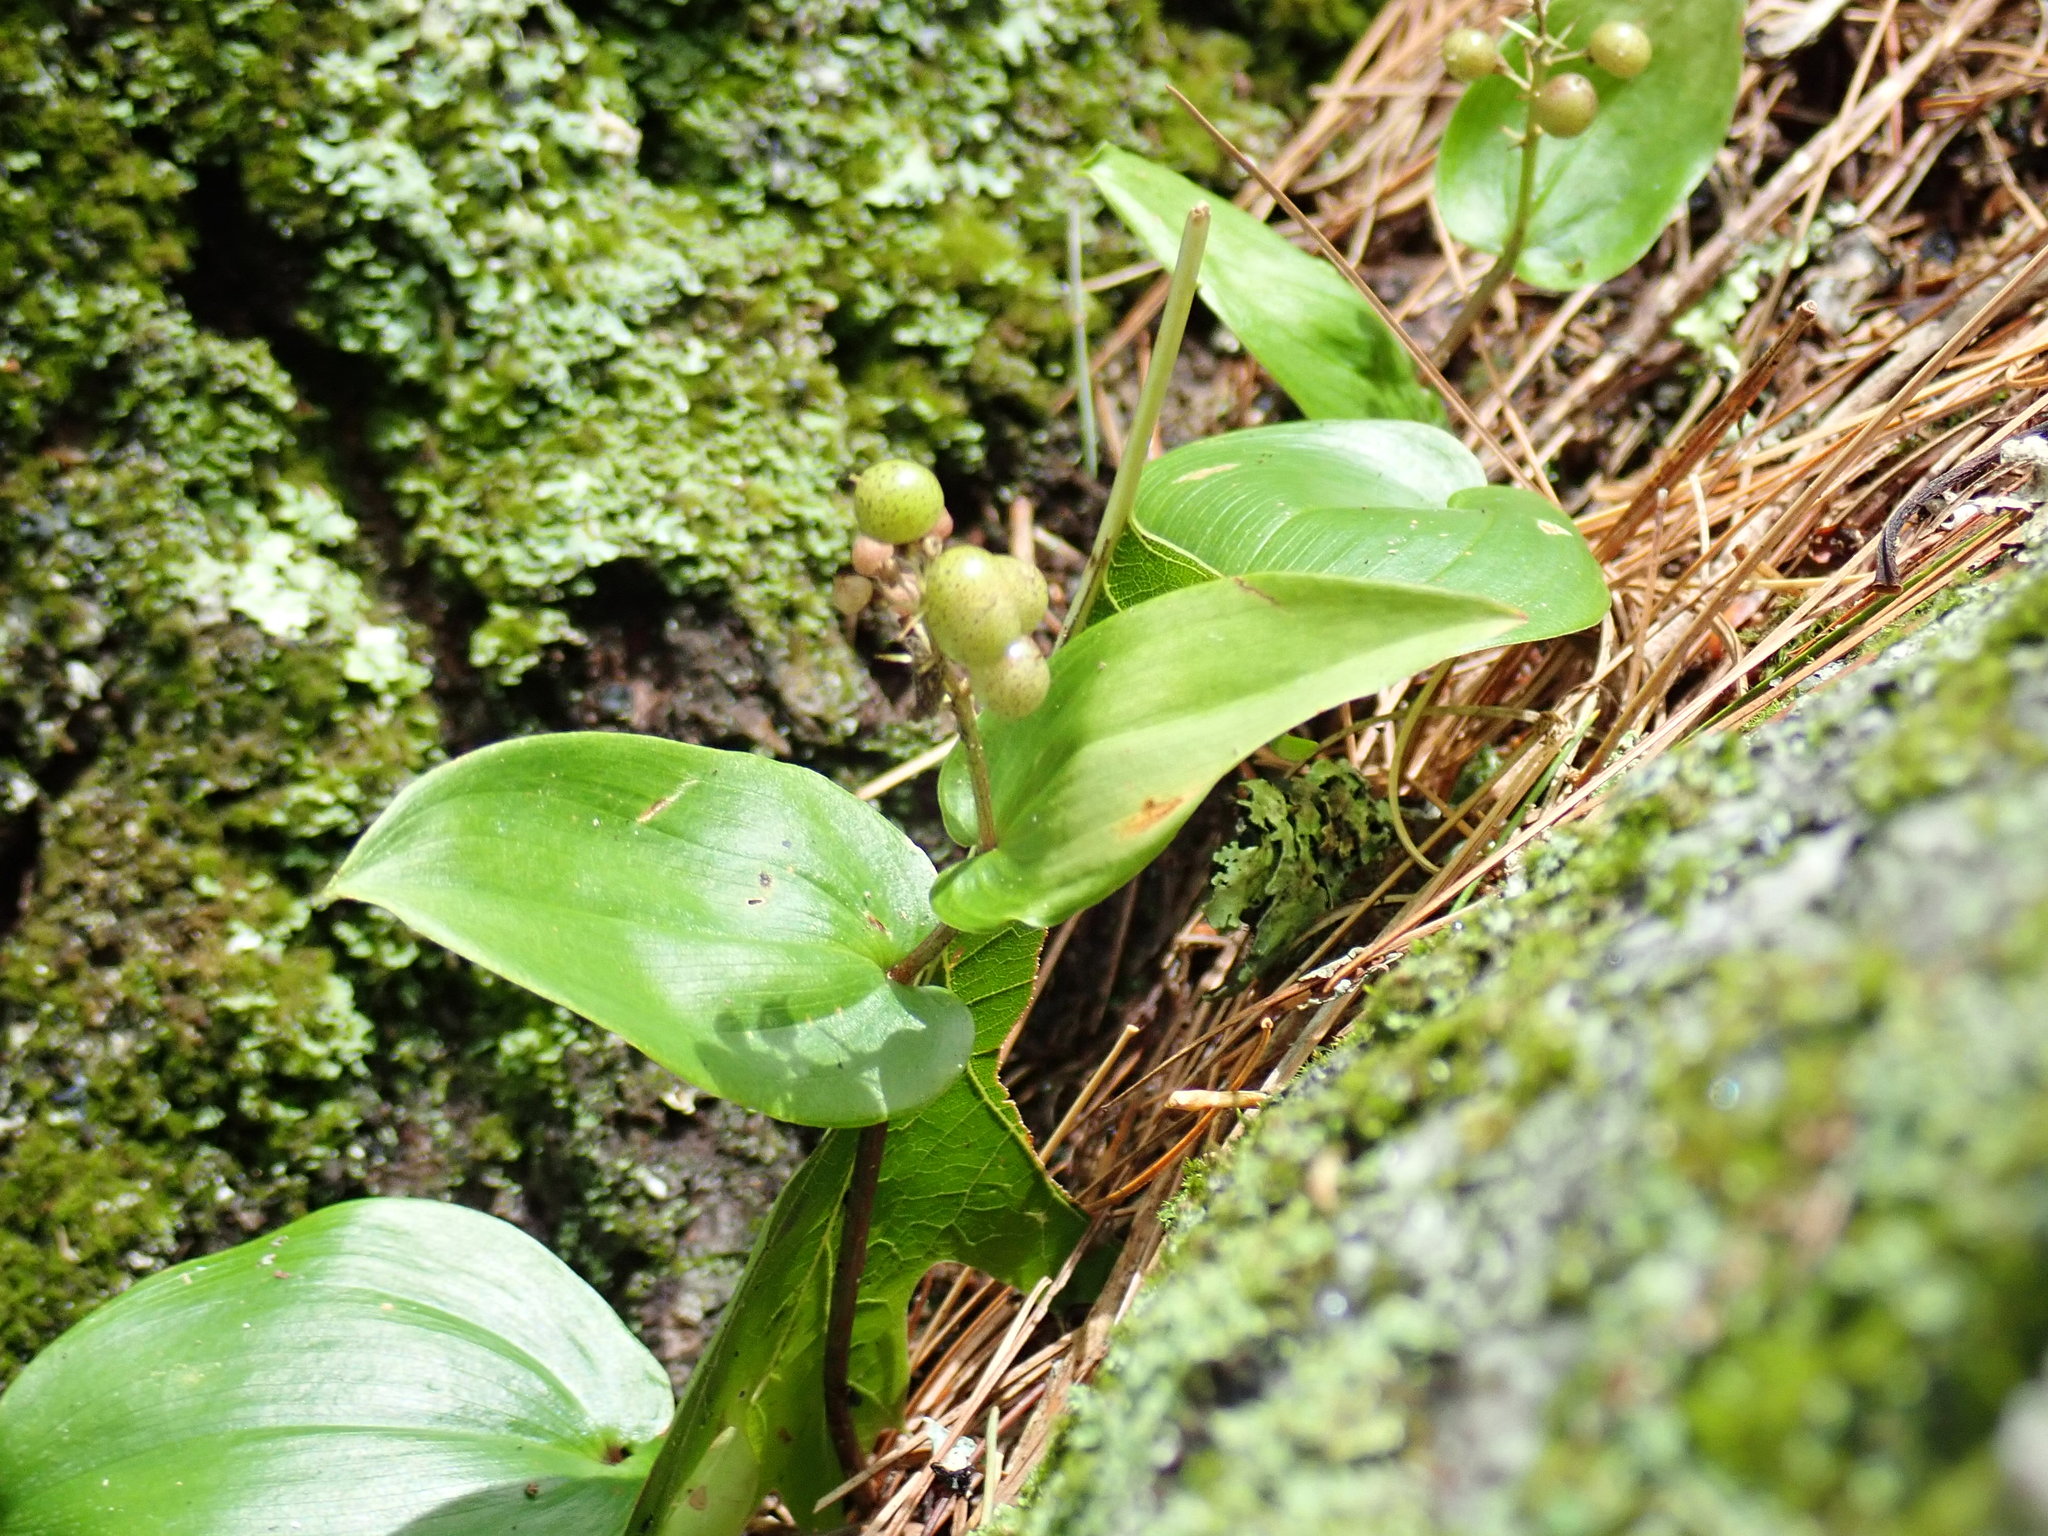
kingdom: Plantae
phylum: Tracheophyta
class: Liliopsida
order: Asparagales
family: Asparagaceae
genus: Maianthemum
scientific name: Maianthemum canadense
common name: False lily-of-the-valley
